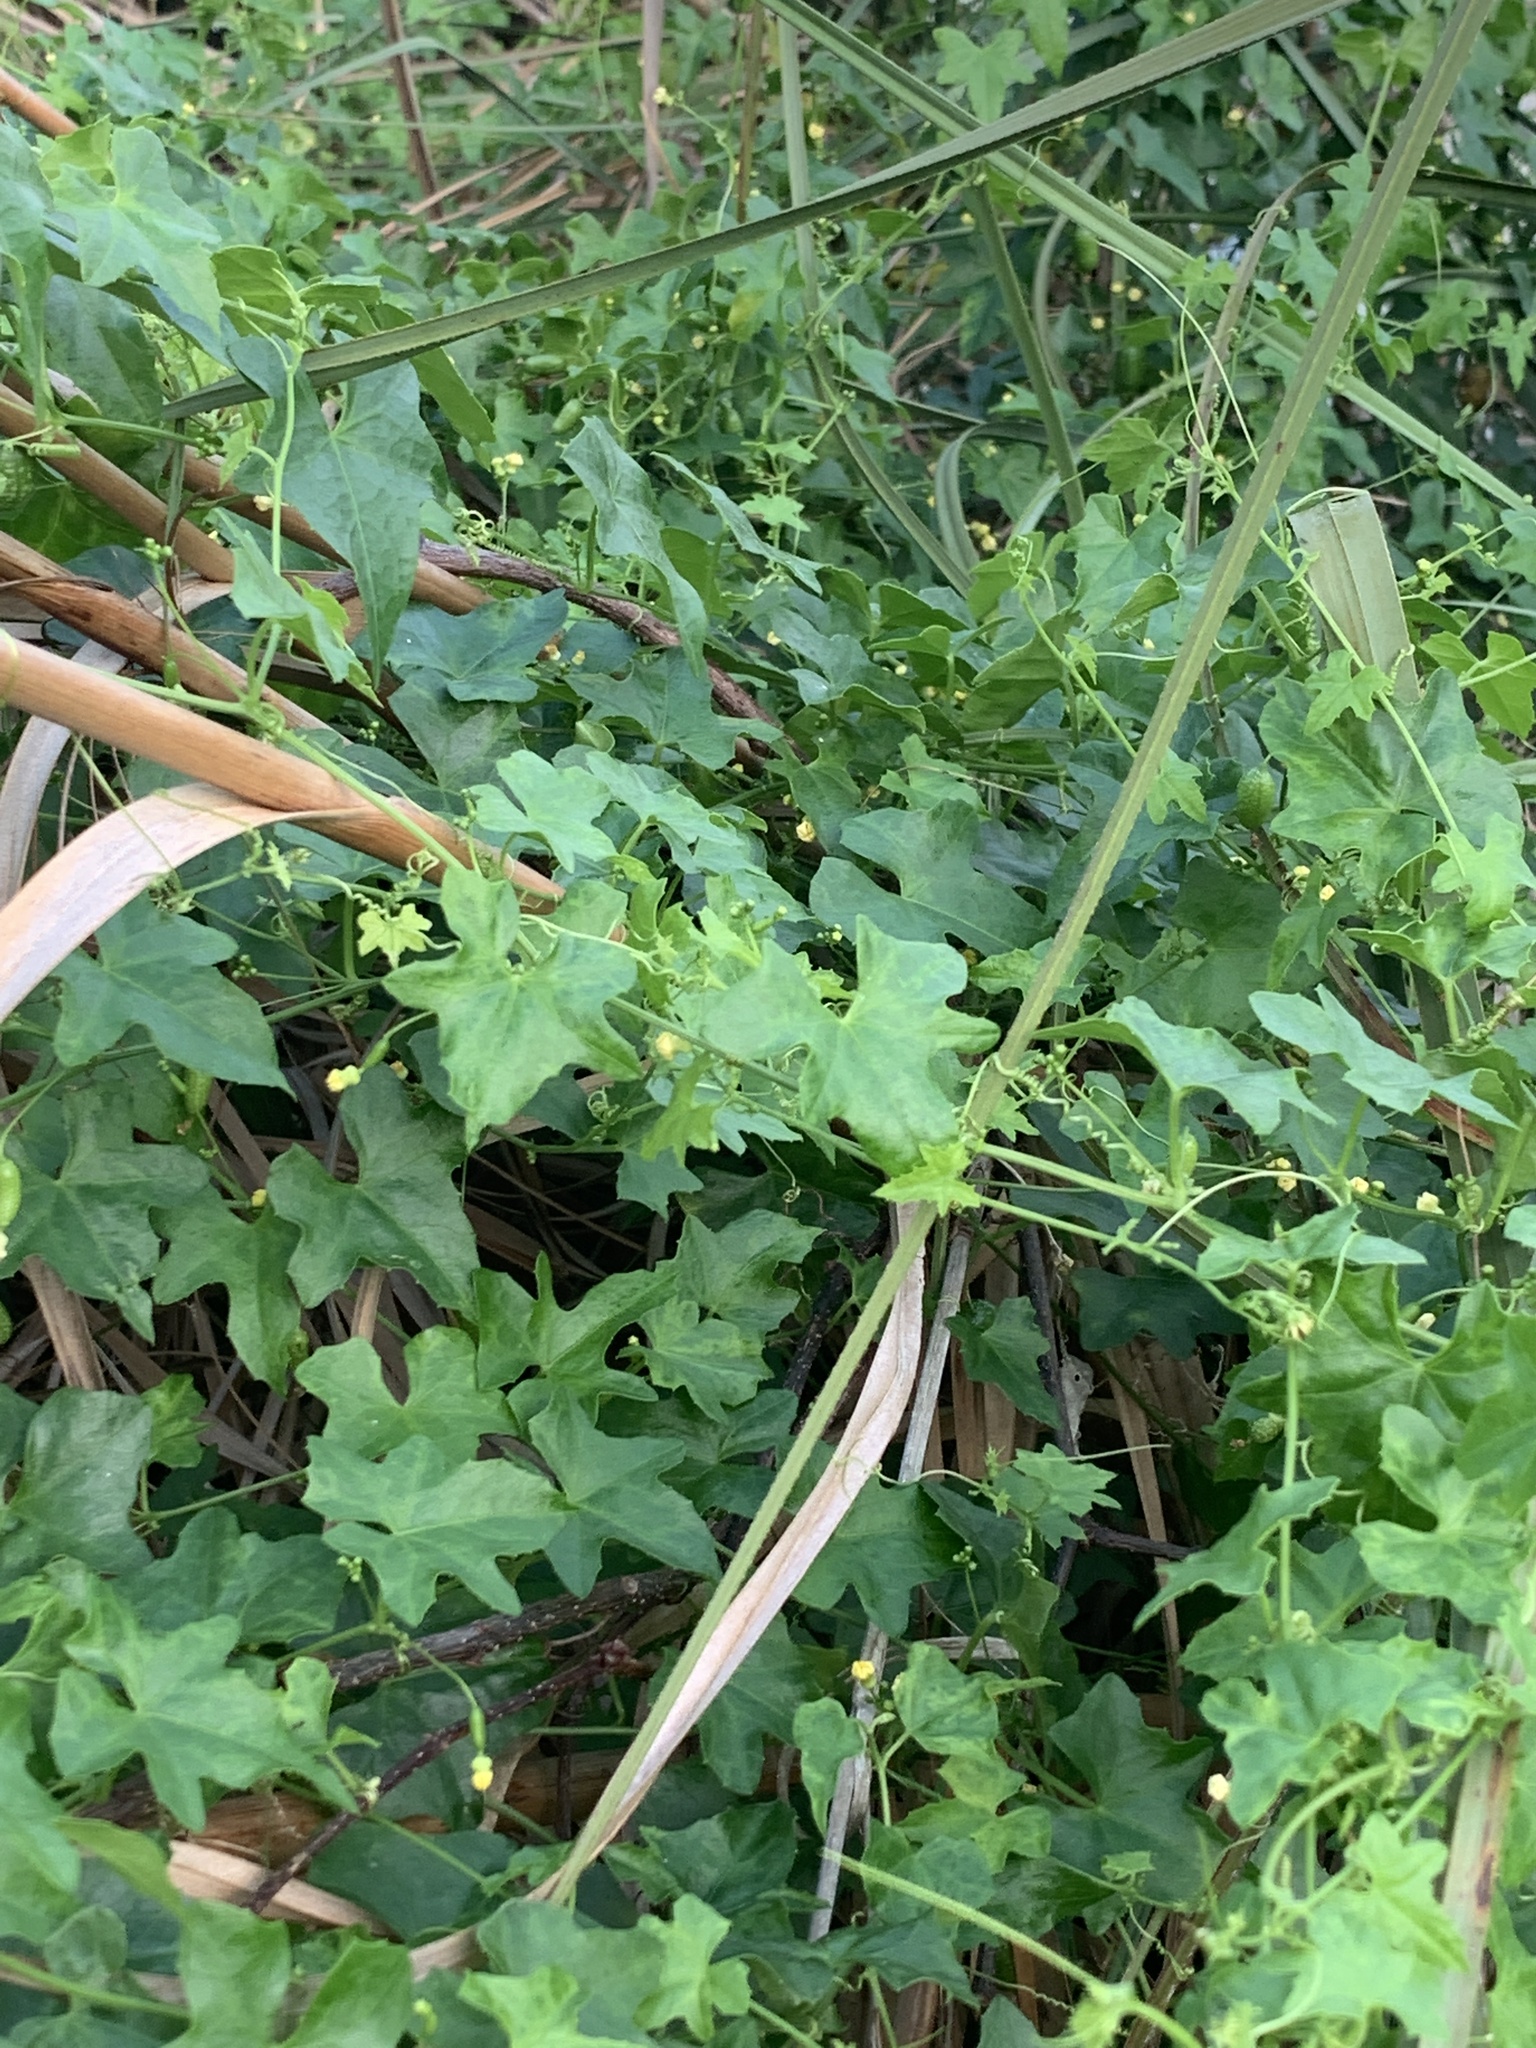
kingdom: Plantae
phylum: Tracheophyta
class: Magnoliopsida
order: Cucurbitales
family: Cucurbitaceae
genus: Melothria
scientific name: Melothria pendula
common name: Creeping-cucumber
